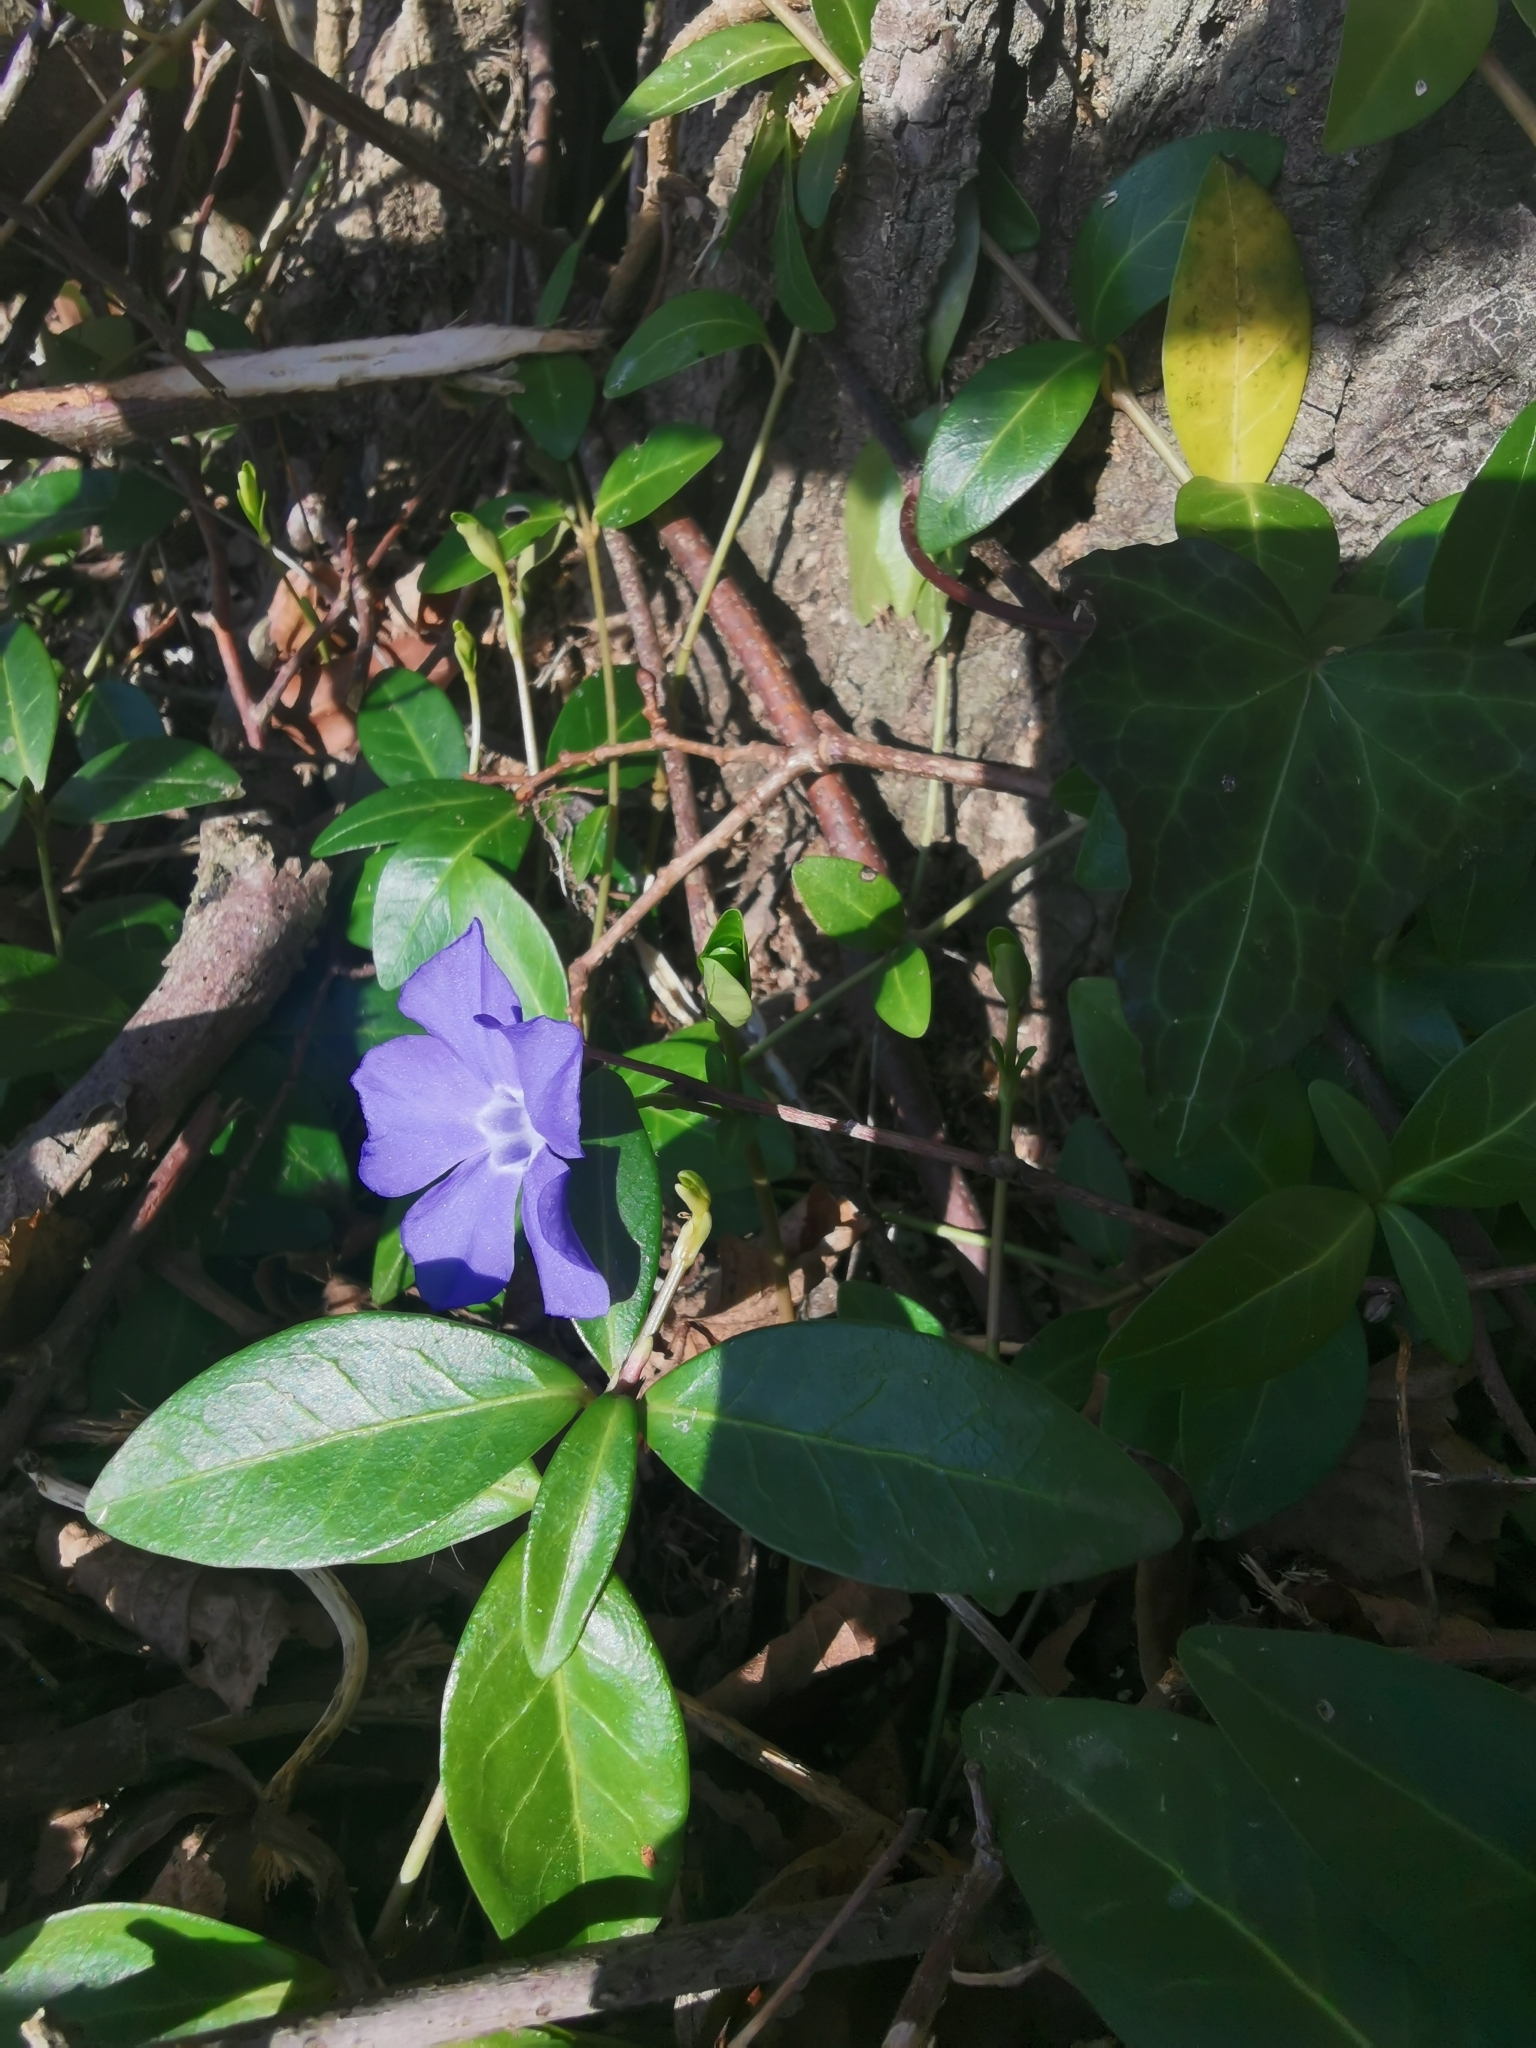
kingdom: Plantae
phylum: Tracheophyta
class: Magnoliopsida
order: Gentianales
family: Apocynaceae
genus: Vinca
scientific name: Vinca minor
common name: Lesser periwinkle
